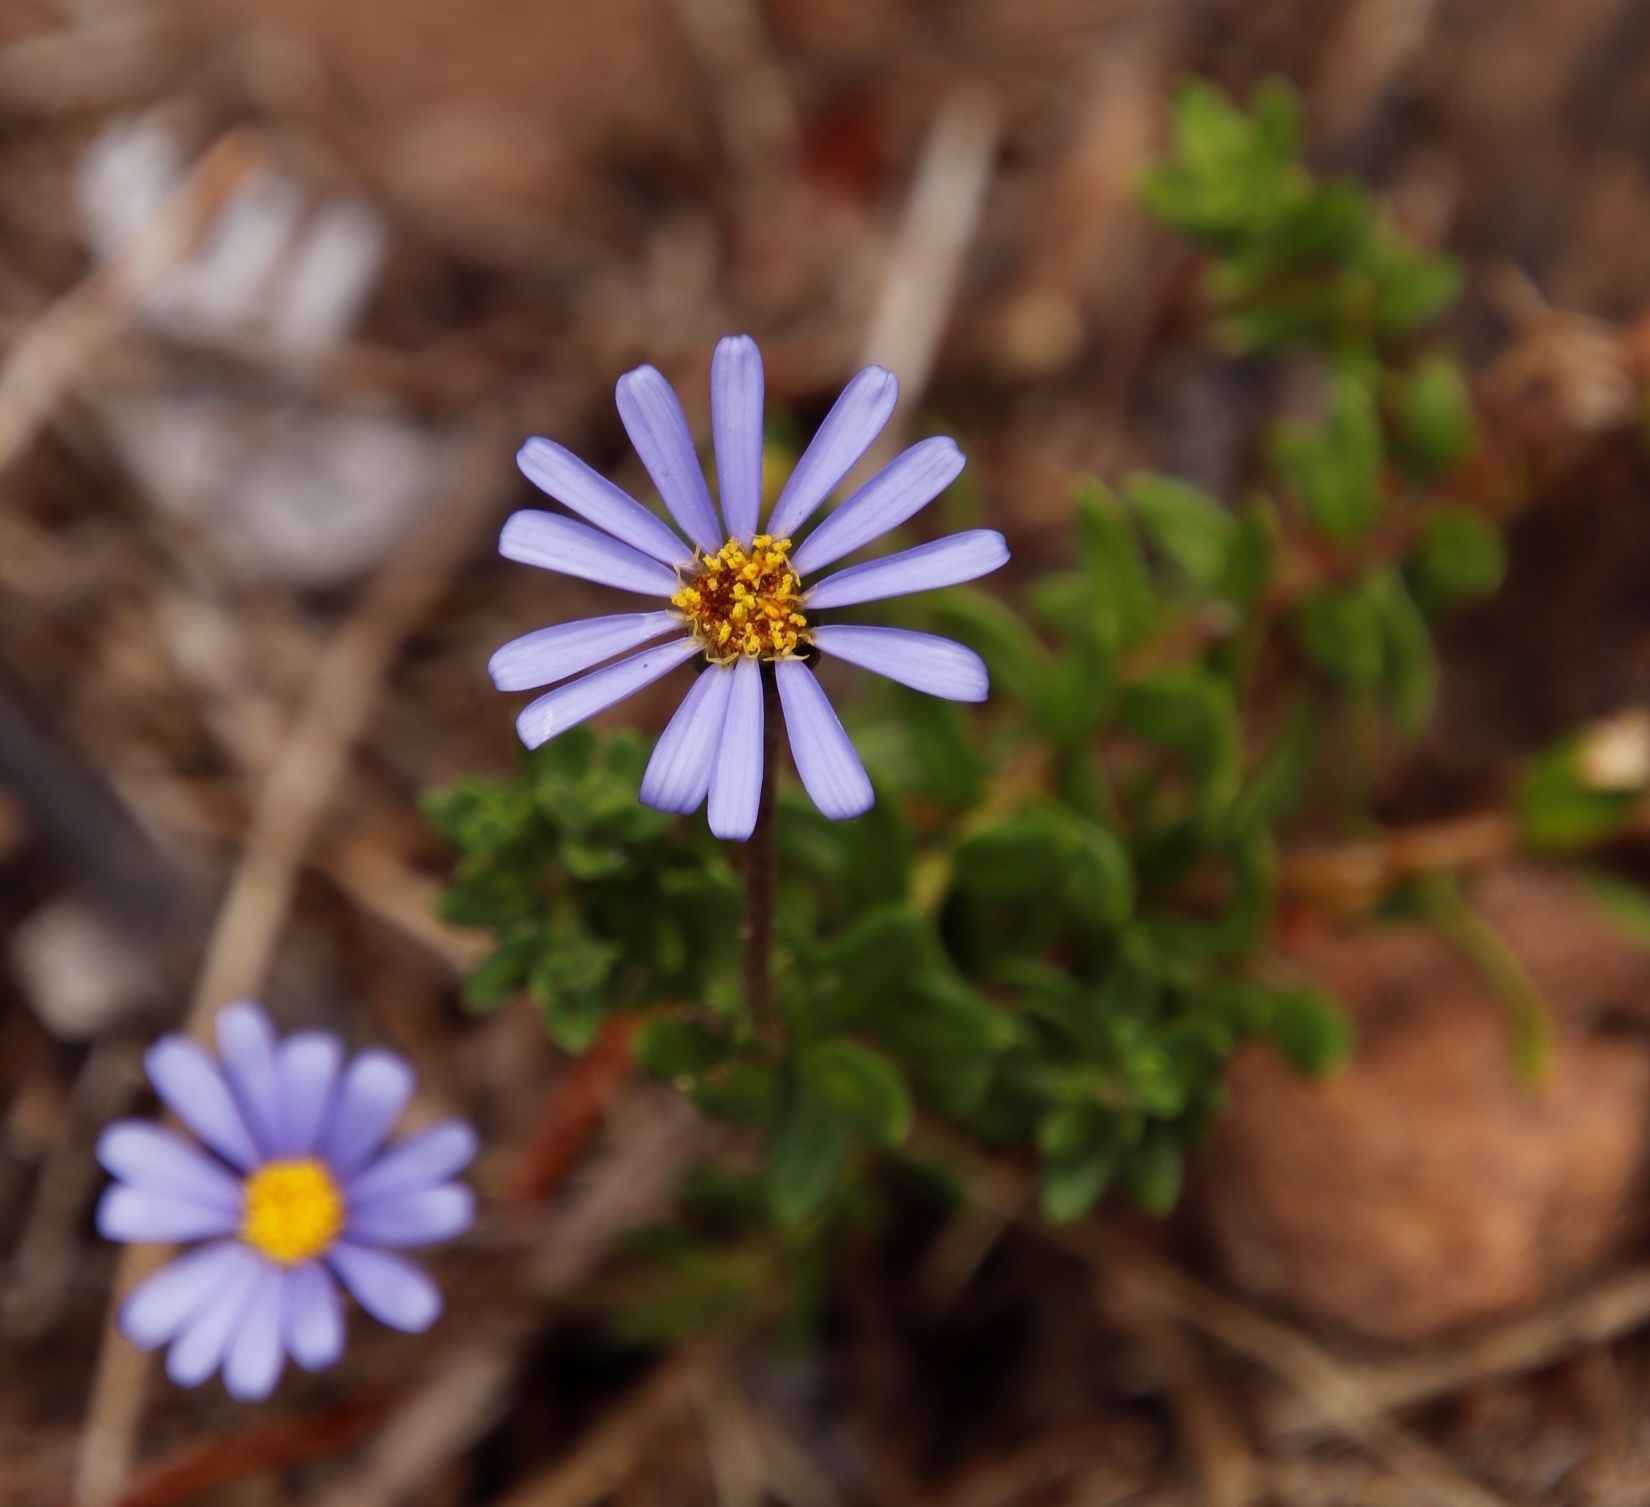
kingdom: Plantae
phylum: Tracheophyta
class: Magnoliopsida
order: Asterales
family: Asteraceae
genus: Felicia
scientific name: Felicia aethiopica
